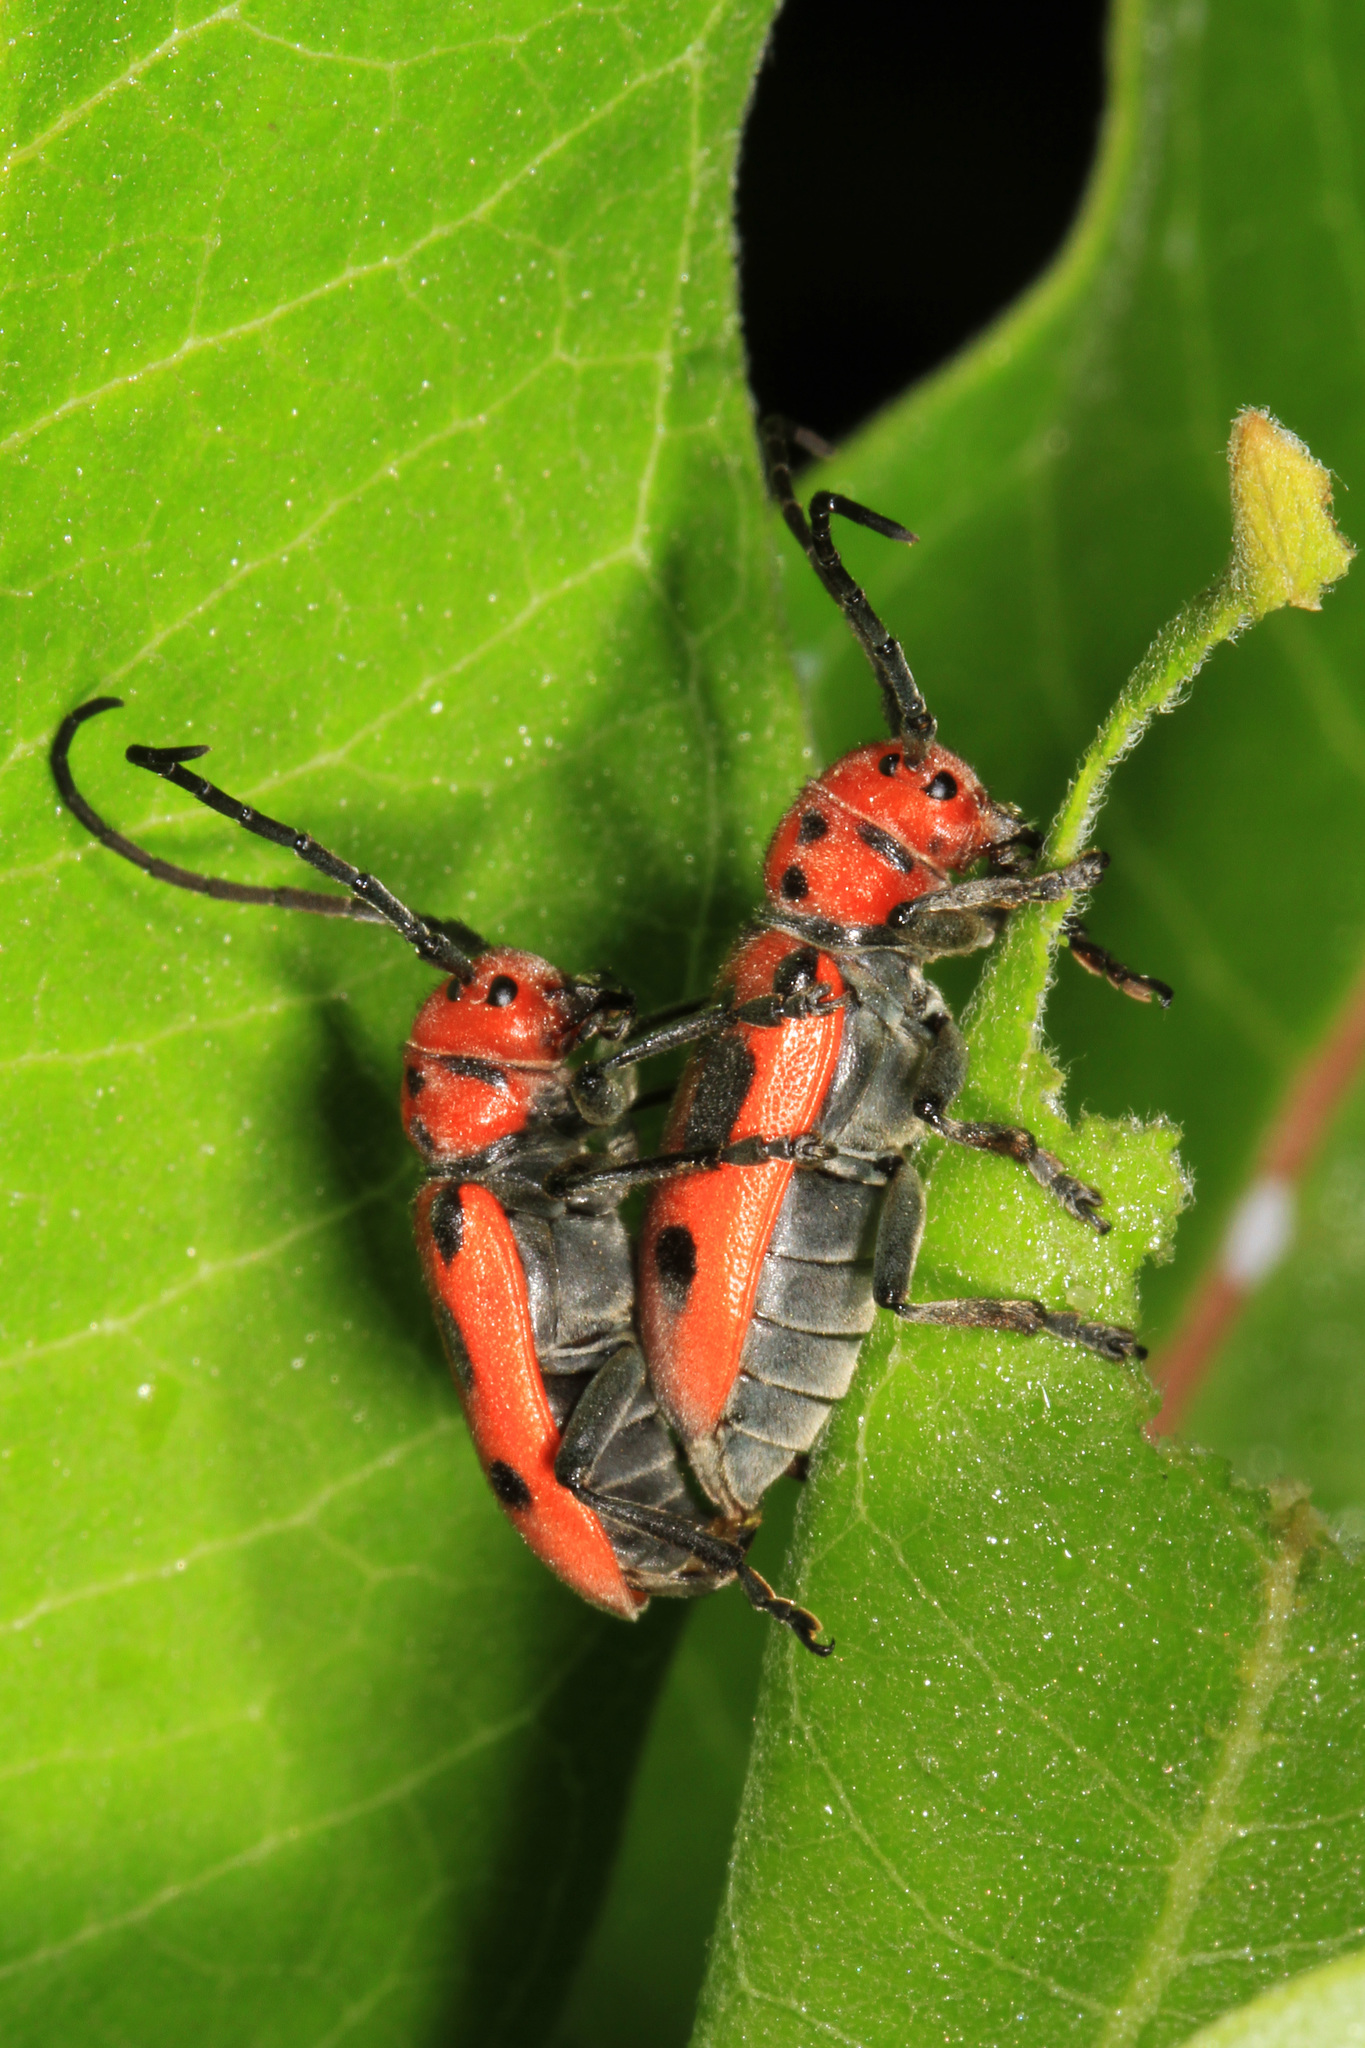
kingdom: Animalia
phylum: Arthropoda
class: Insecta
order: Coleoptera
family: Cerambycidae
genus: Tetraopes
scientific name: Tetraopes tetrophthalmus
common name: Red milkweed beetle
